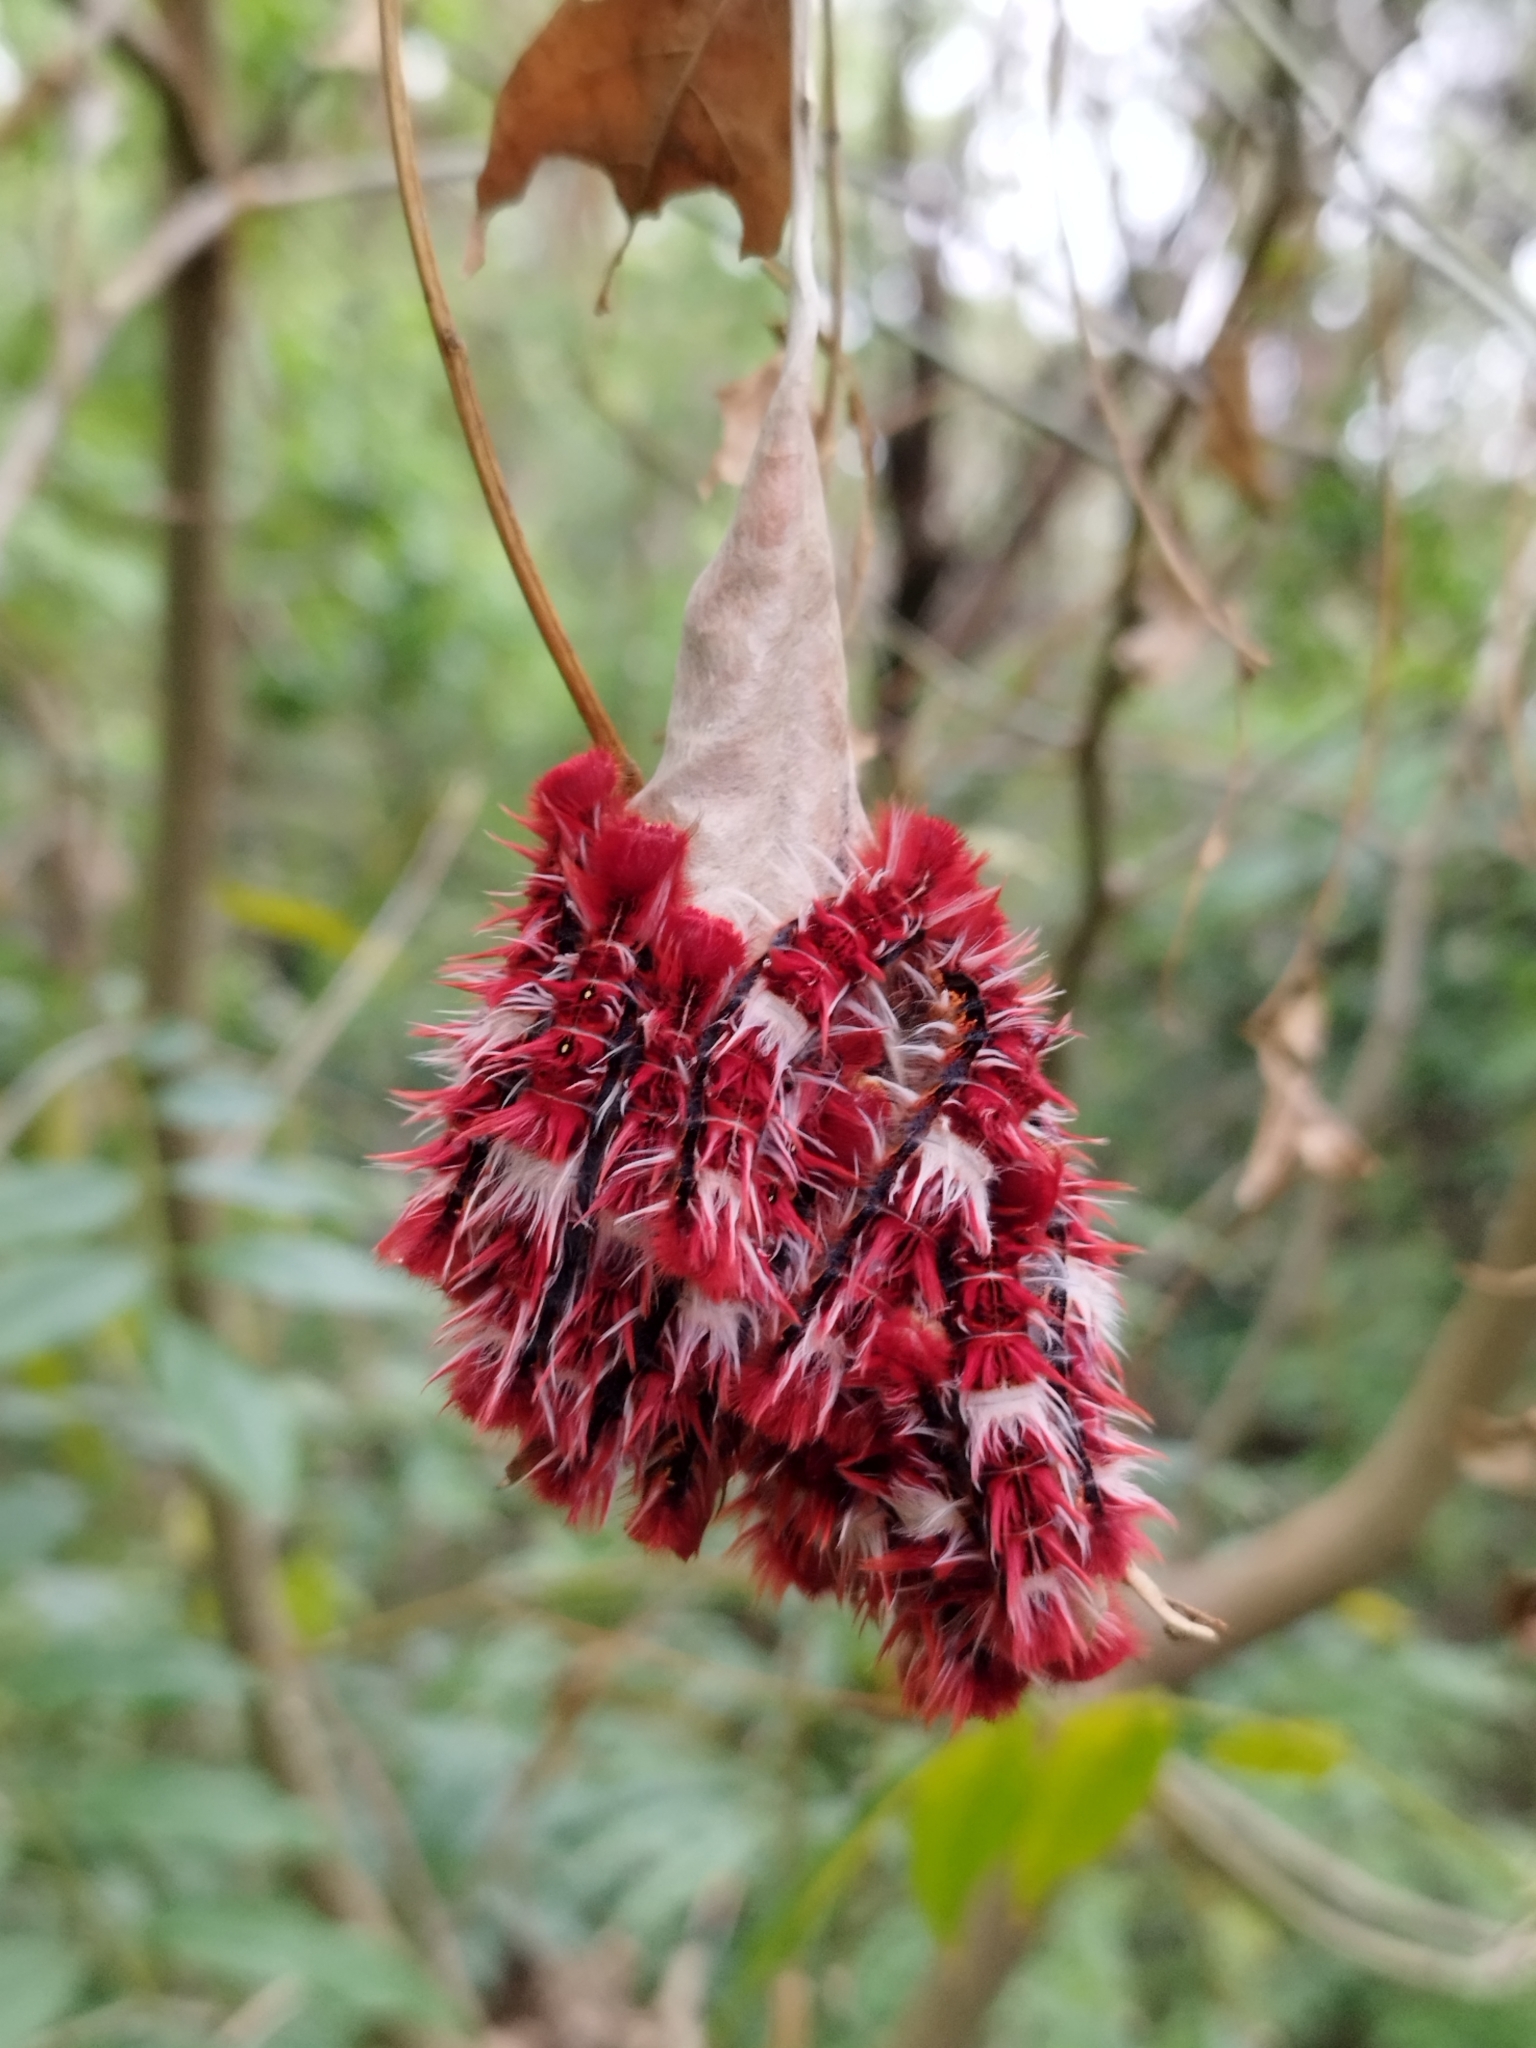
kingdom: Animalia
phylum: Arthropoda
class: Insecta
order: Lepidoptera
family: Nymphalidae
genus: Morpho
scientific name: Morpho epistrophus
